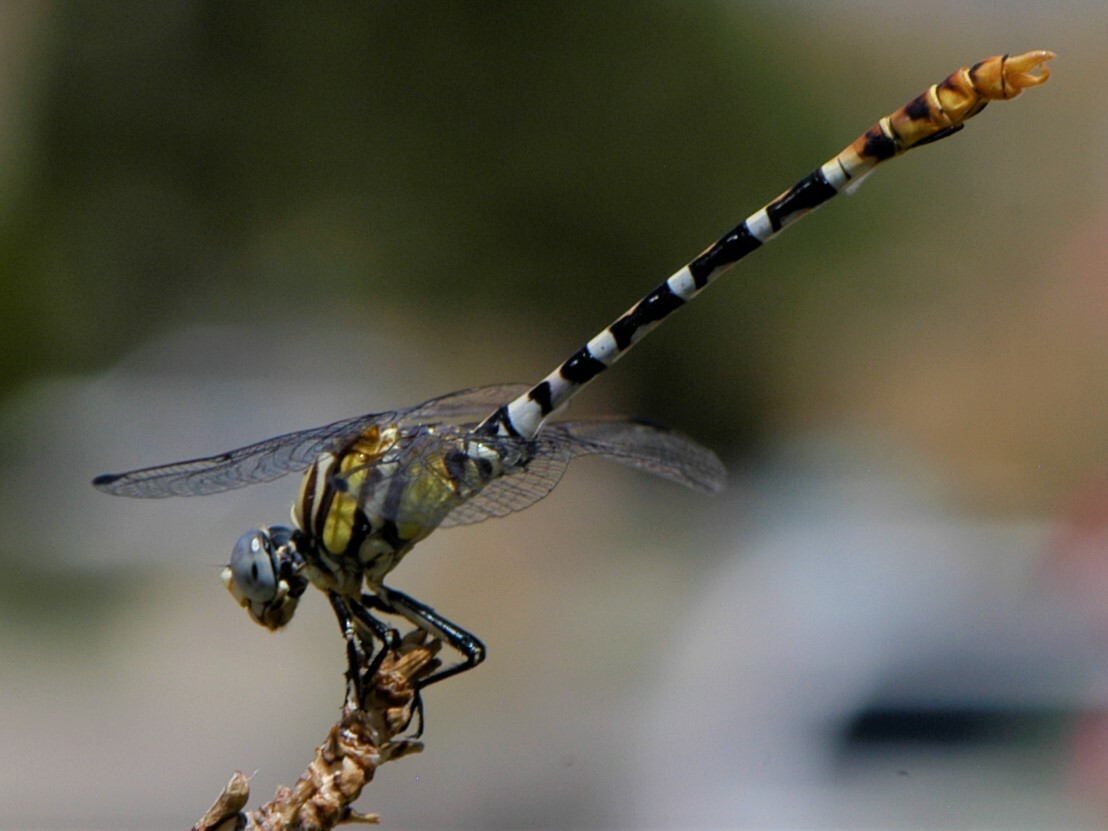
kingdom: Animalia
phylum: Arthropoda
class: Insecta
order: Odonata
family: Gomphidae
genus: Erpetogomphus
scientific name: Erpetogomphus compositus
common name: White-belted ringtail
